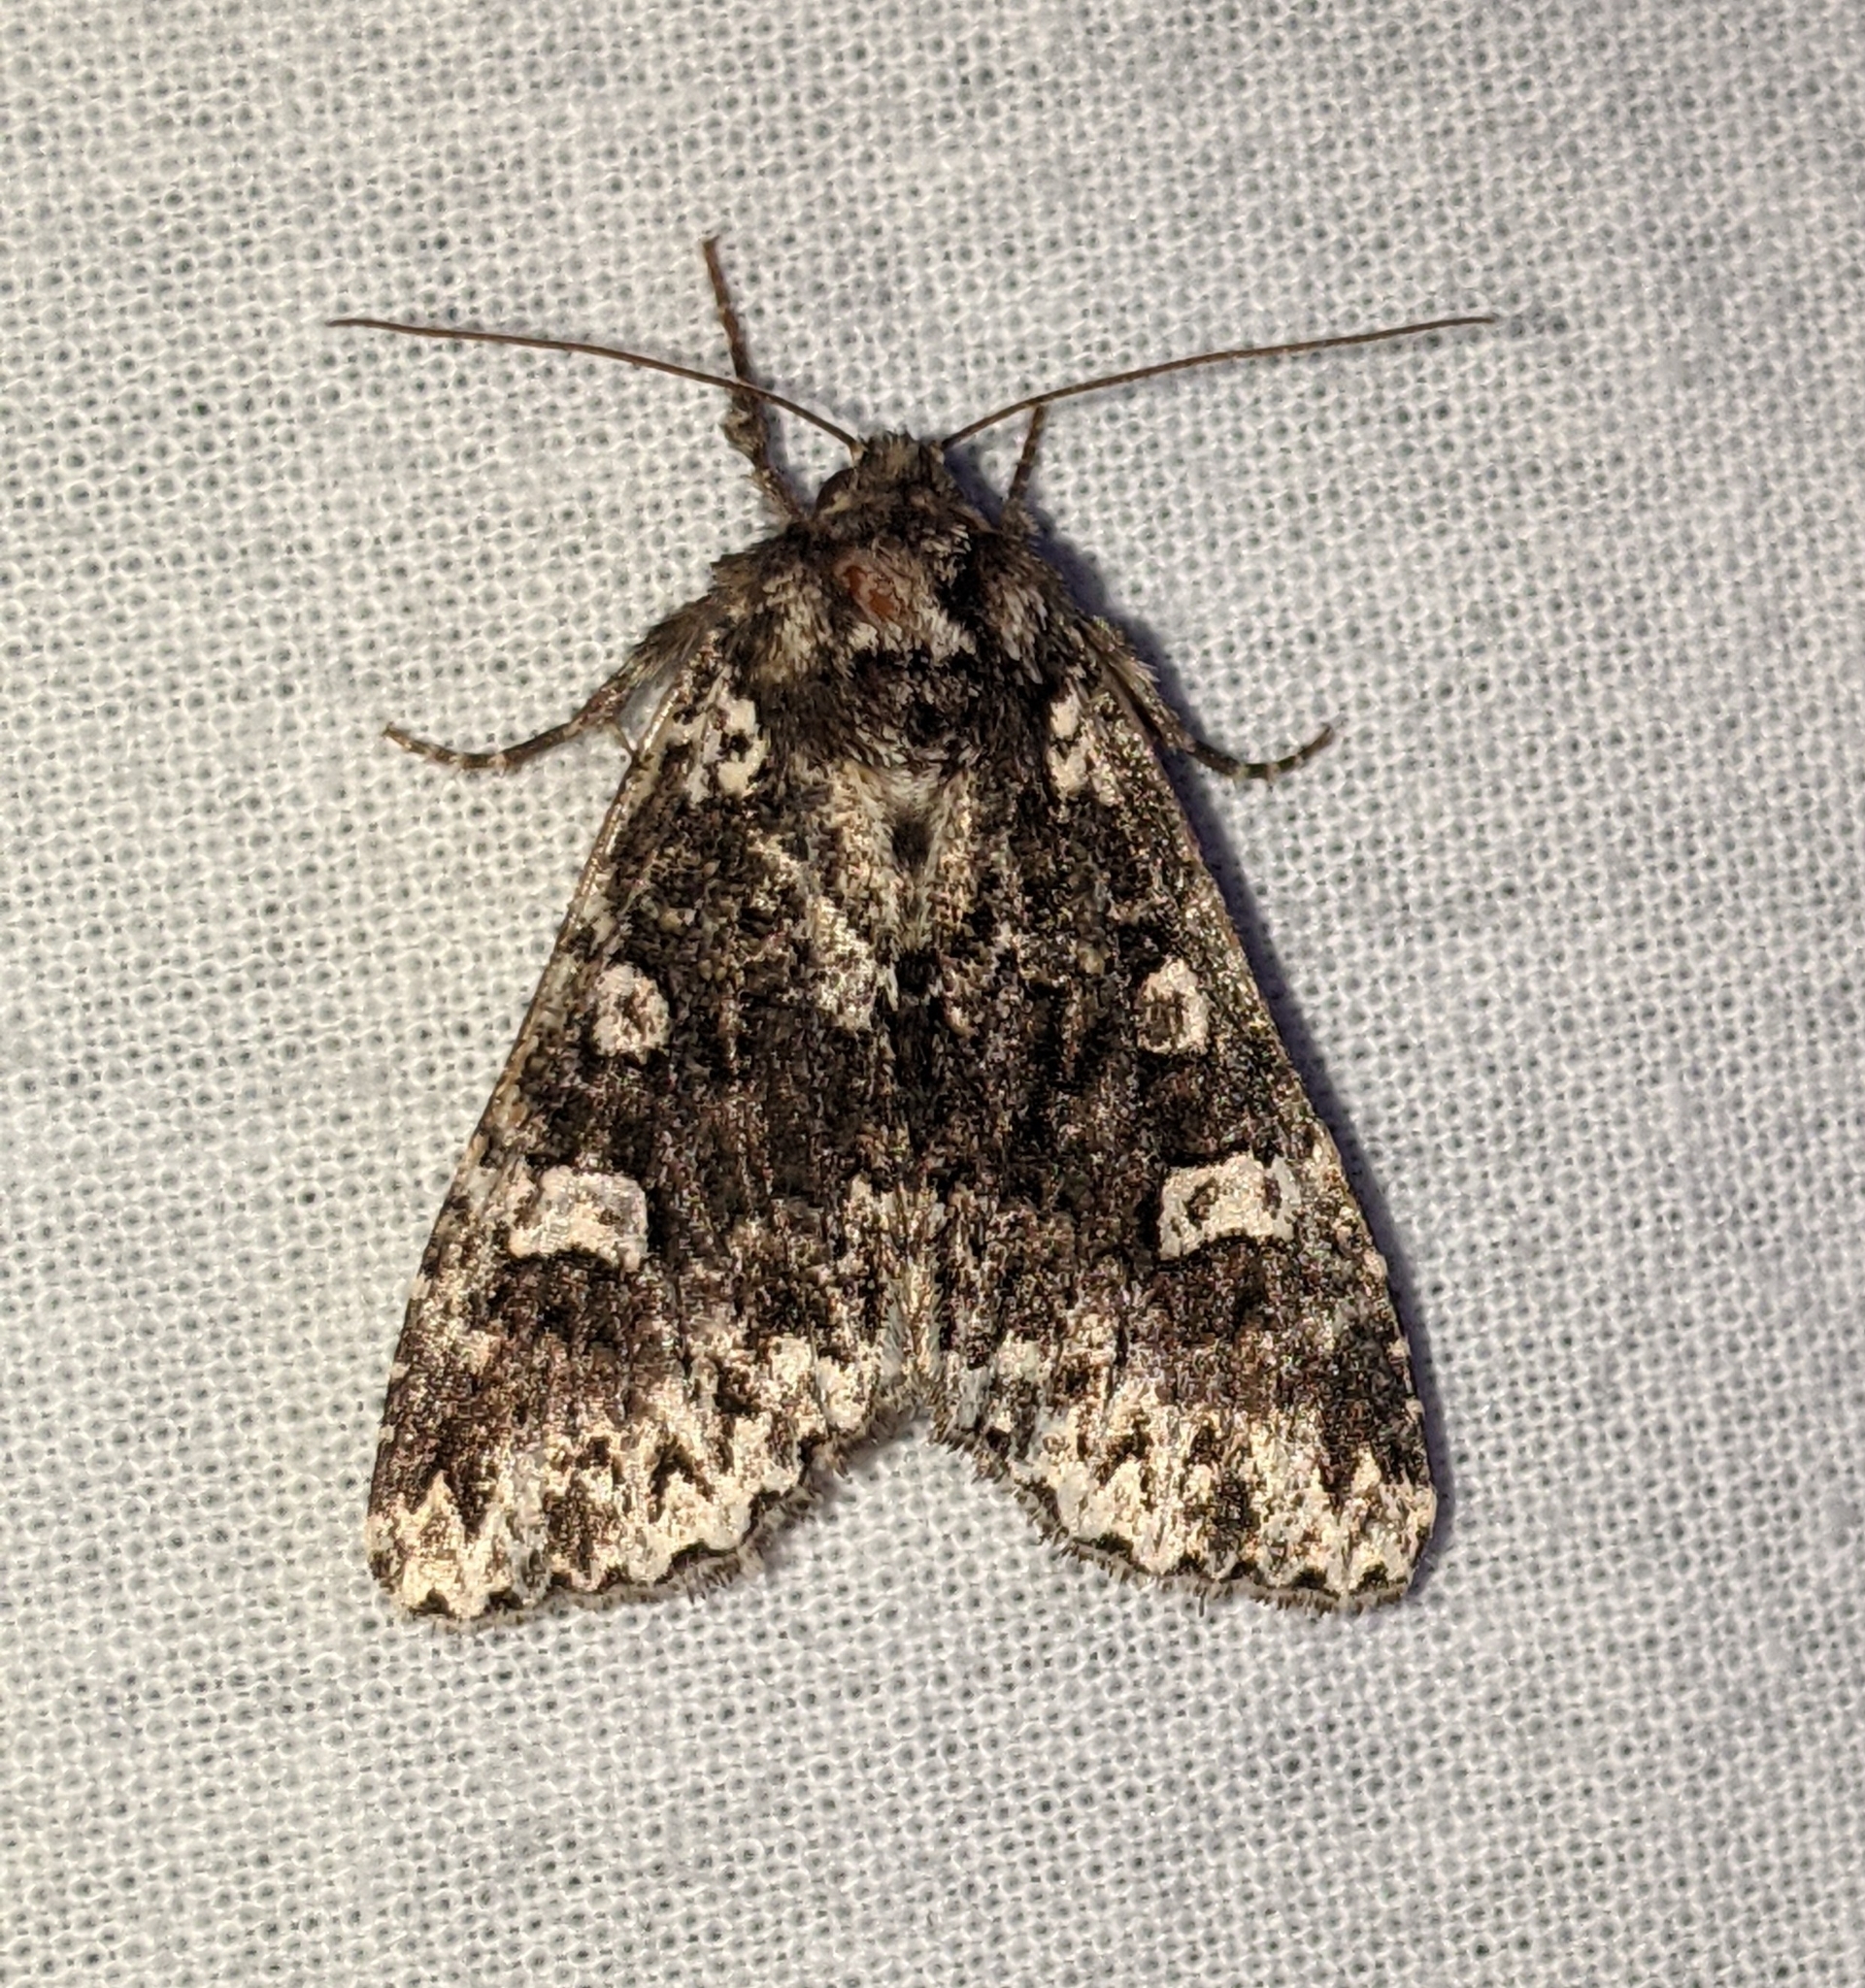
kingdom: Animalia
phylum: Arthropoda
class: Insecta
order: Lepidoptera
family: Noctuidae
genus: Melanchra
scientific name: Melanchra adjuncta
